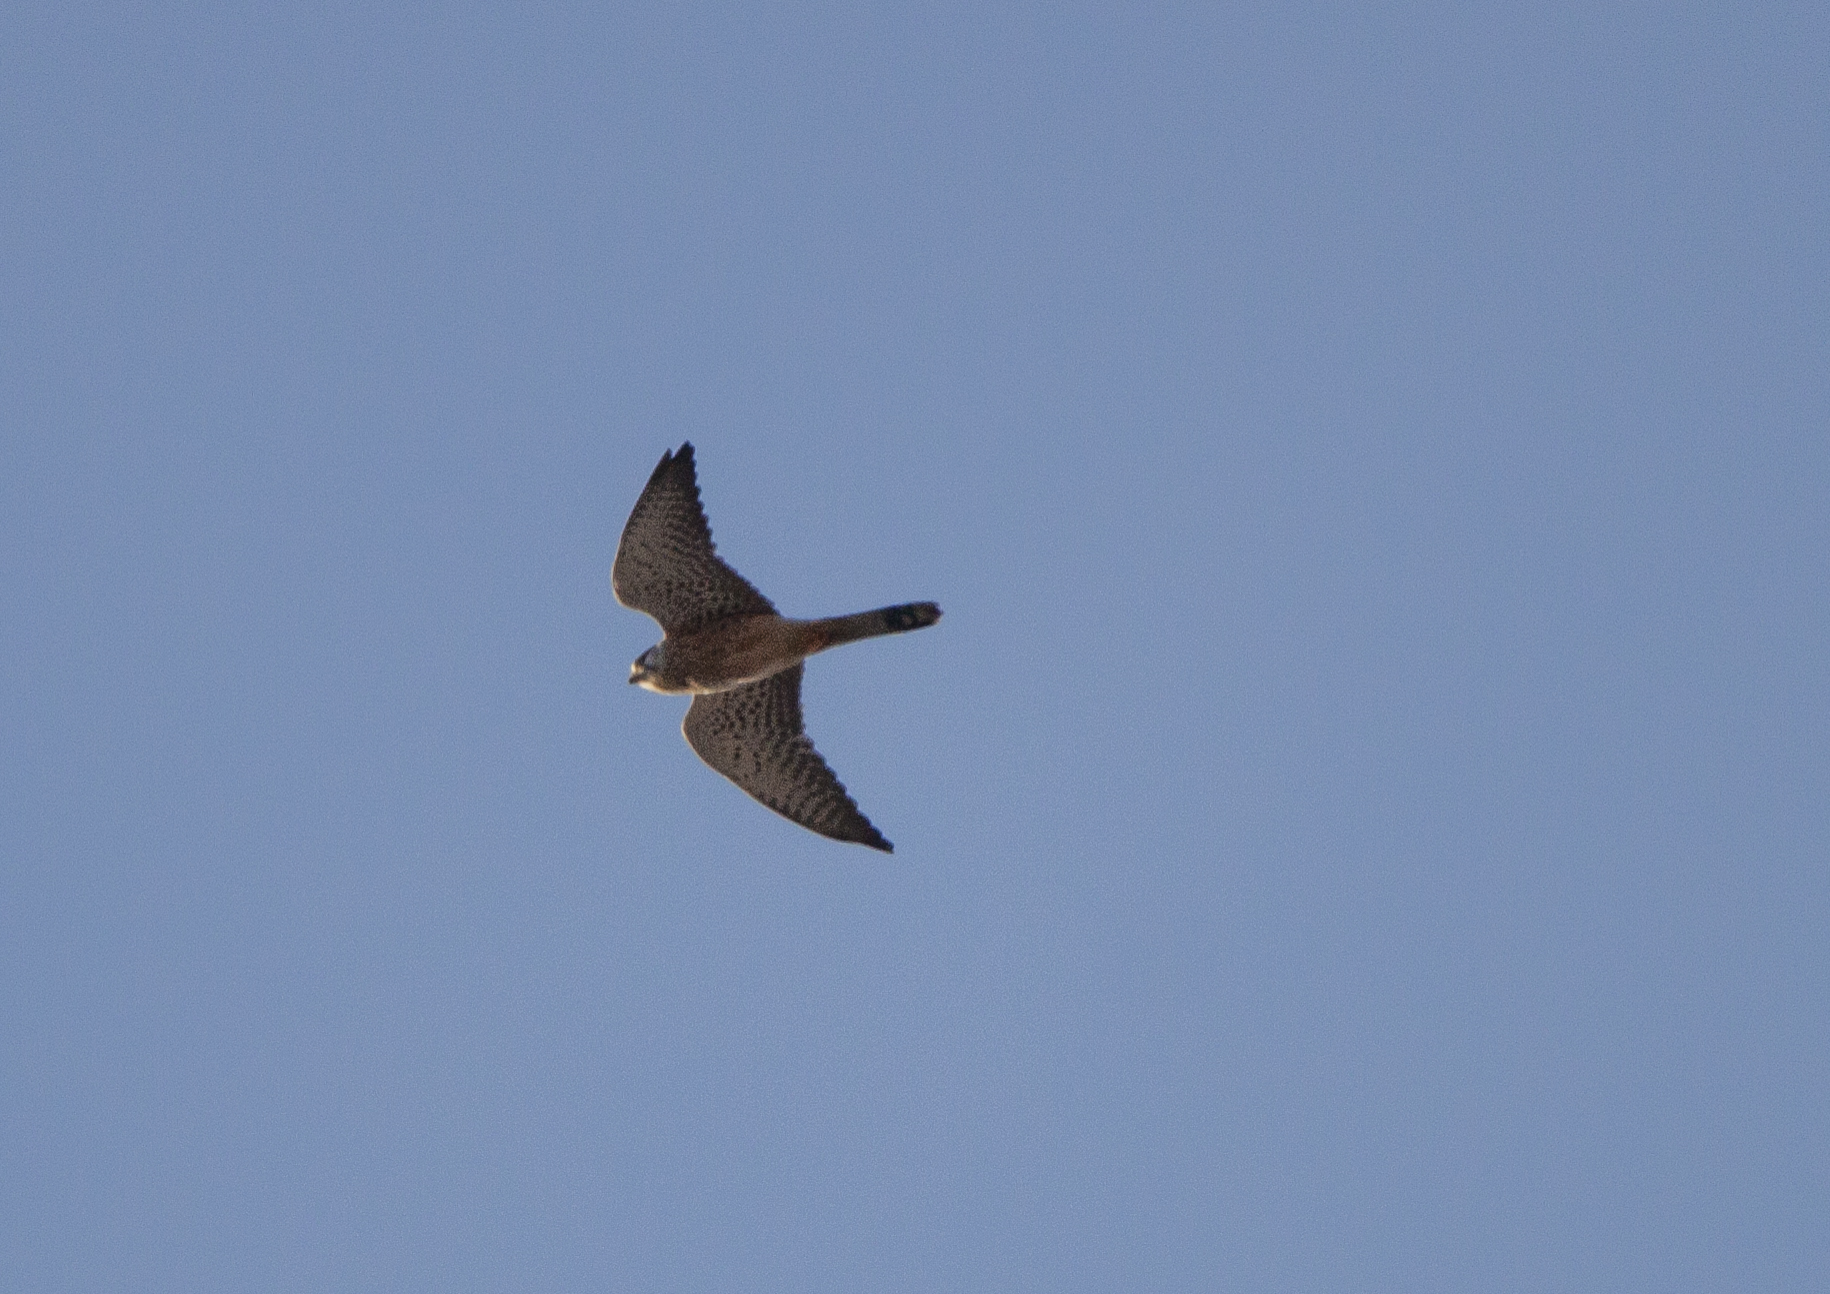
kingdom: Animalia
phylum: Chordata
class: Aves
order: Falconiformes
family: Falconidae
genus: Falco
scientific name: Falco tinnunculus
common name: Common kestrel
